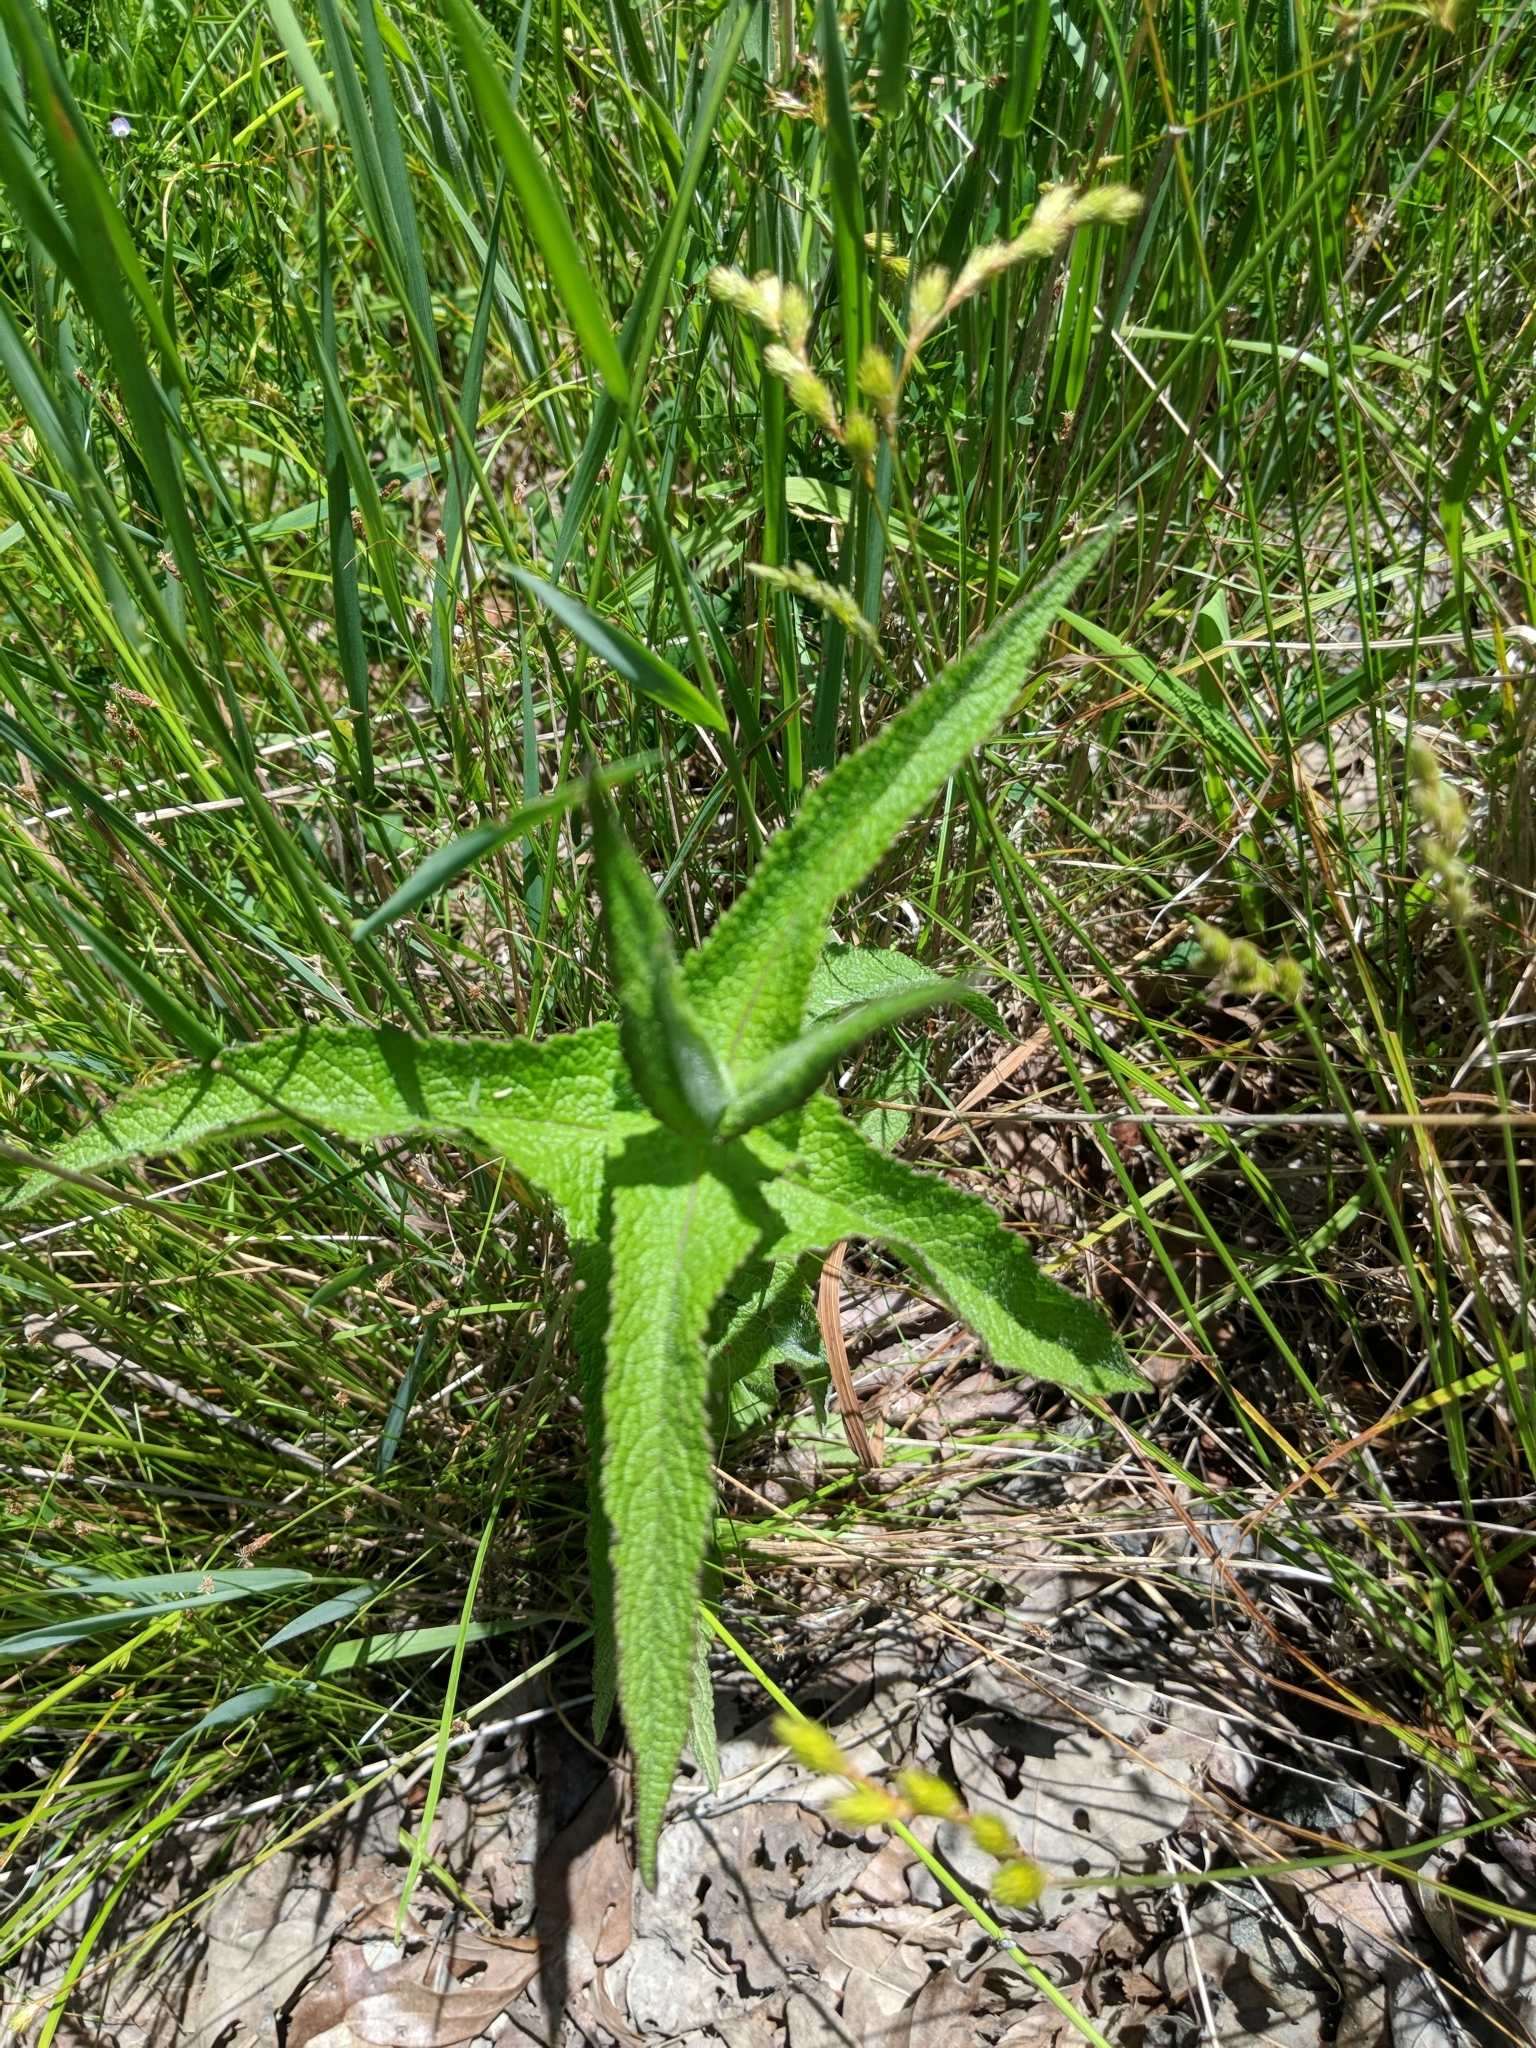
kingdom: Plantae
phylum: Tracheophyta
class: Magnoliopsida
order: Asterales
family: Asteraceae
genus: Eupatorium
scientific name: Eupatorium perfoliatum
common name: Boneset
